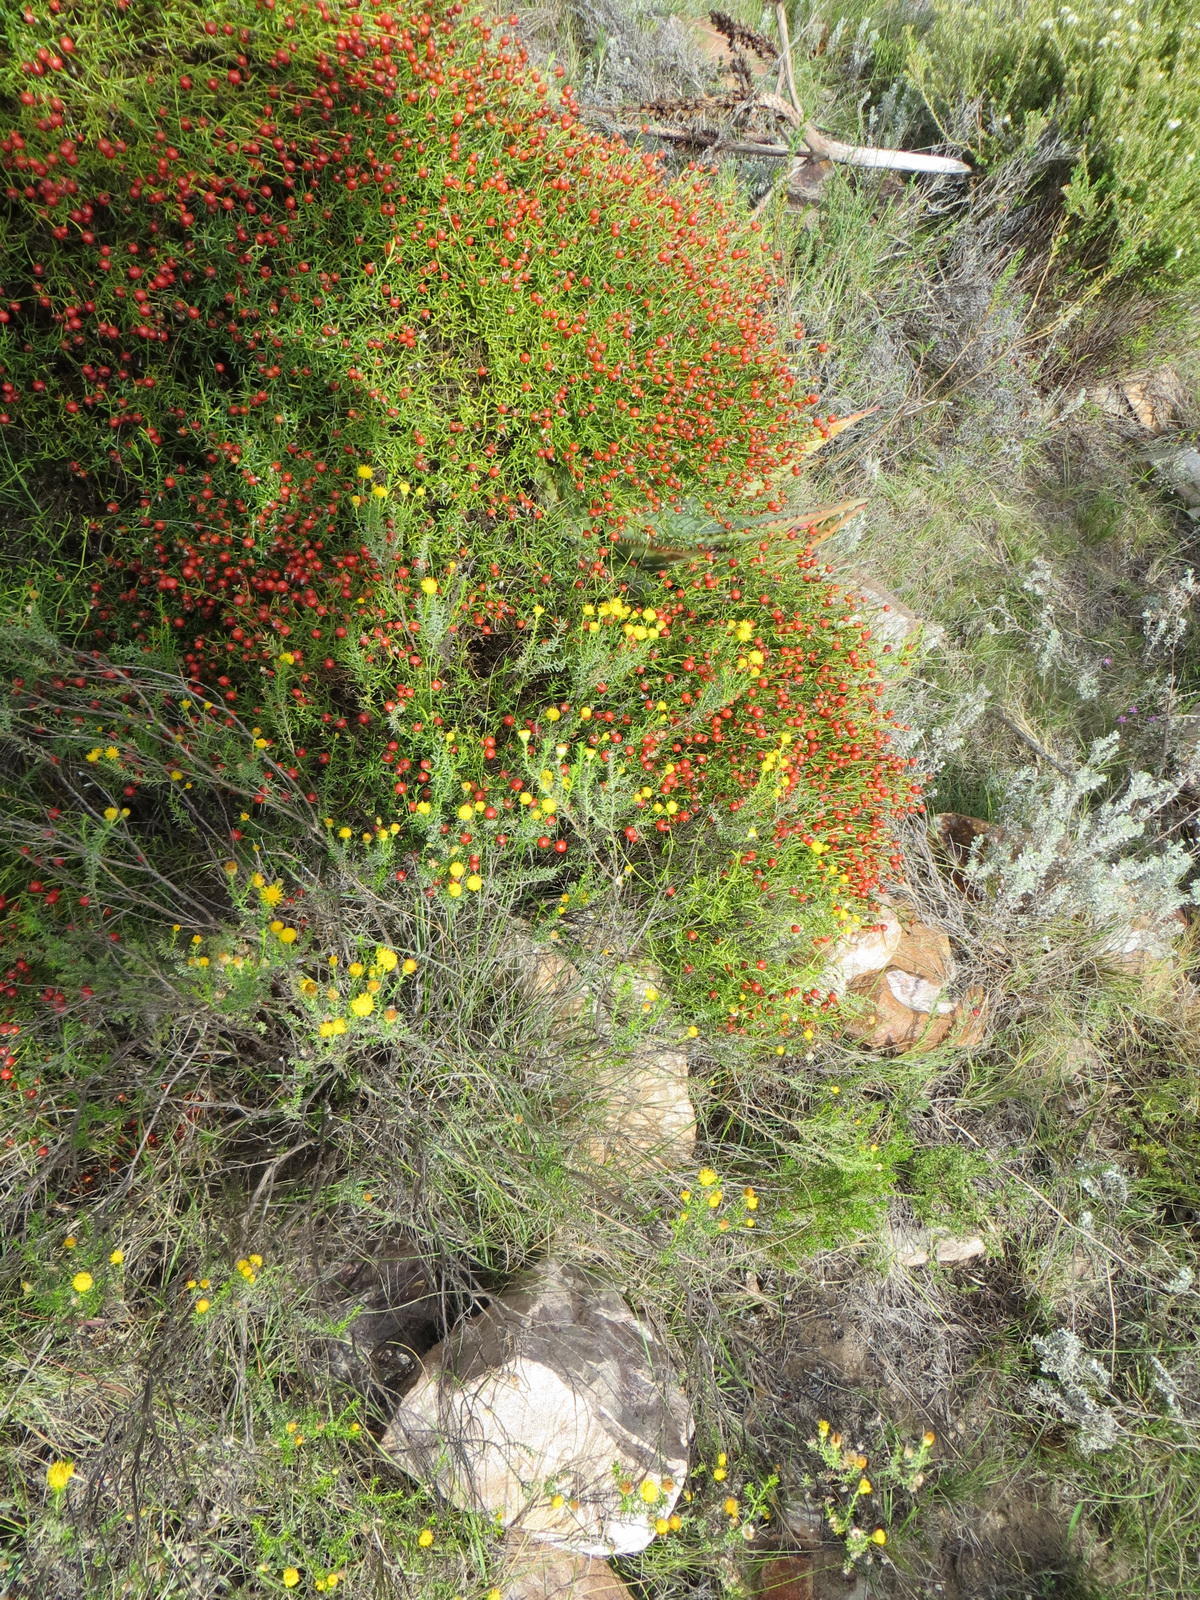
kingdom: Plantae
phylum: Tracheophyta
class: Magnoliopsida
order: Gentianales
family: Gentianaceae
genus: Chironia
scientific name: Chironia baccifera
